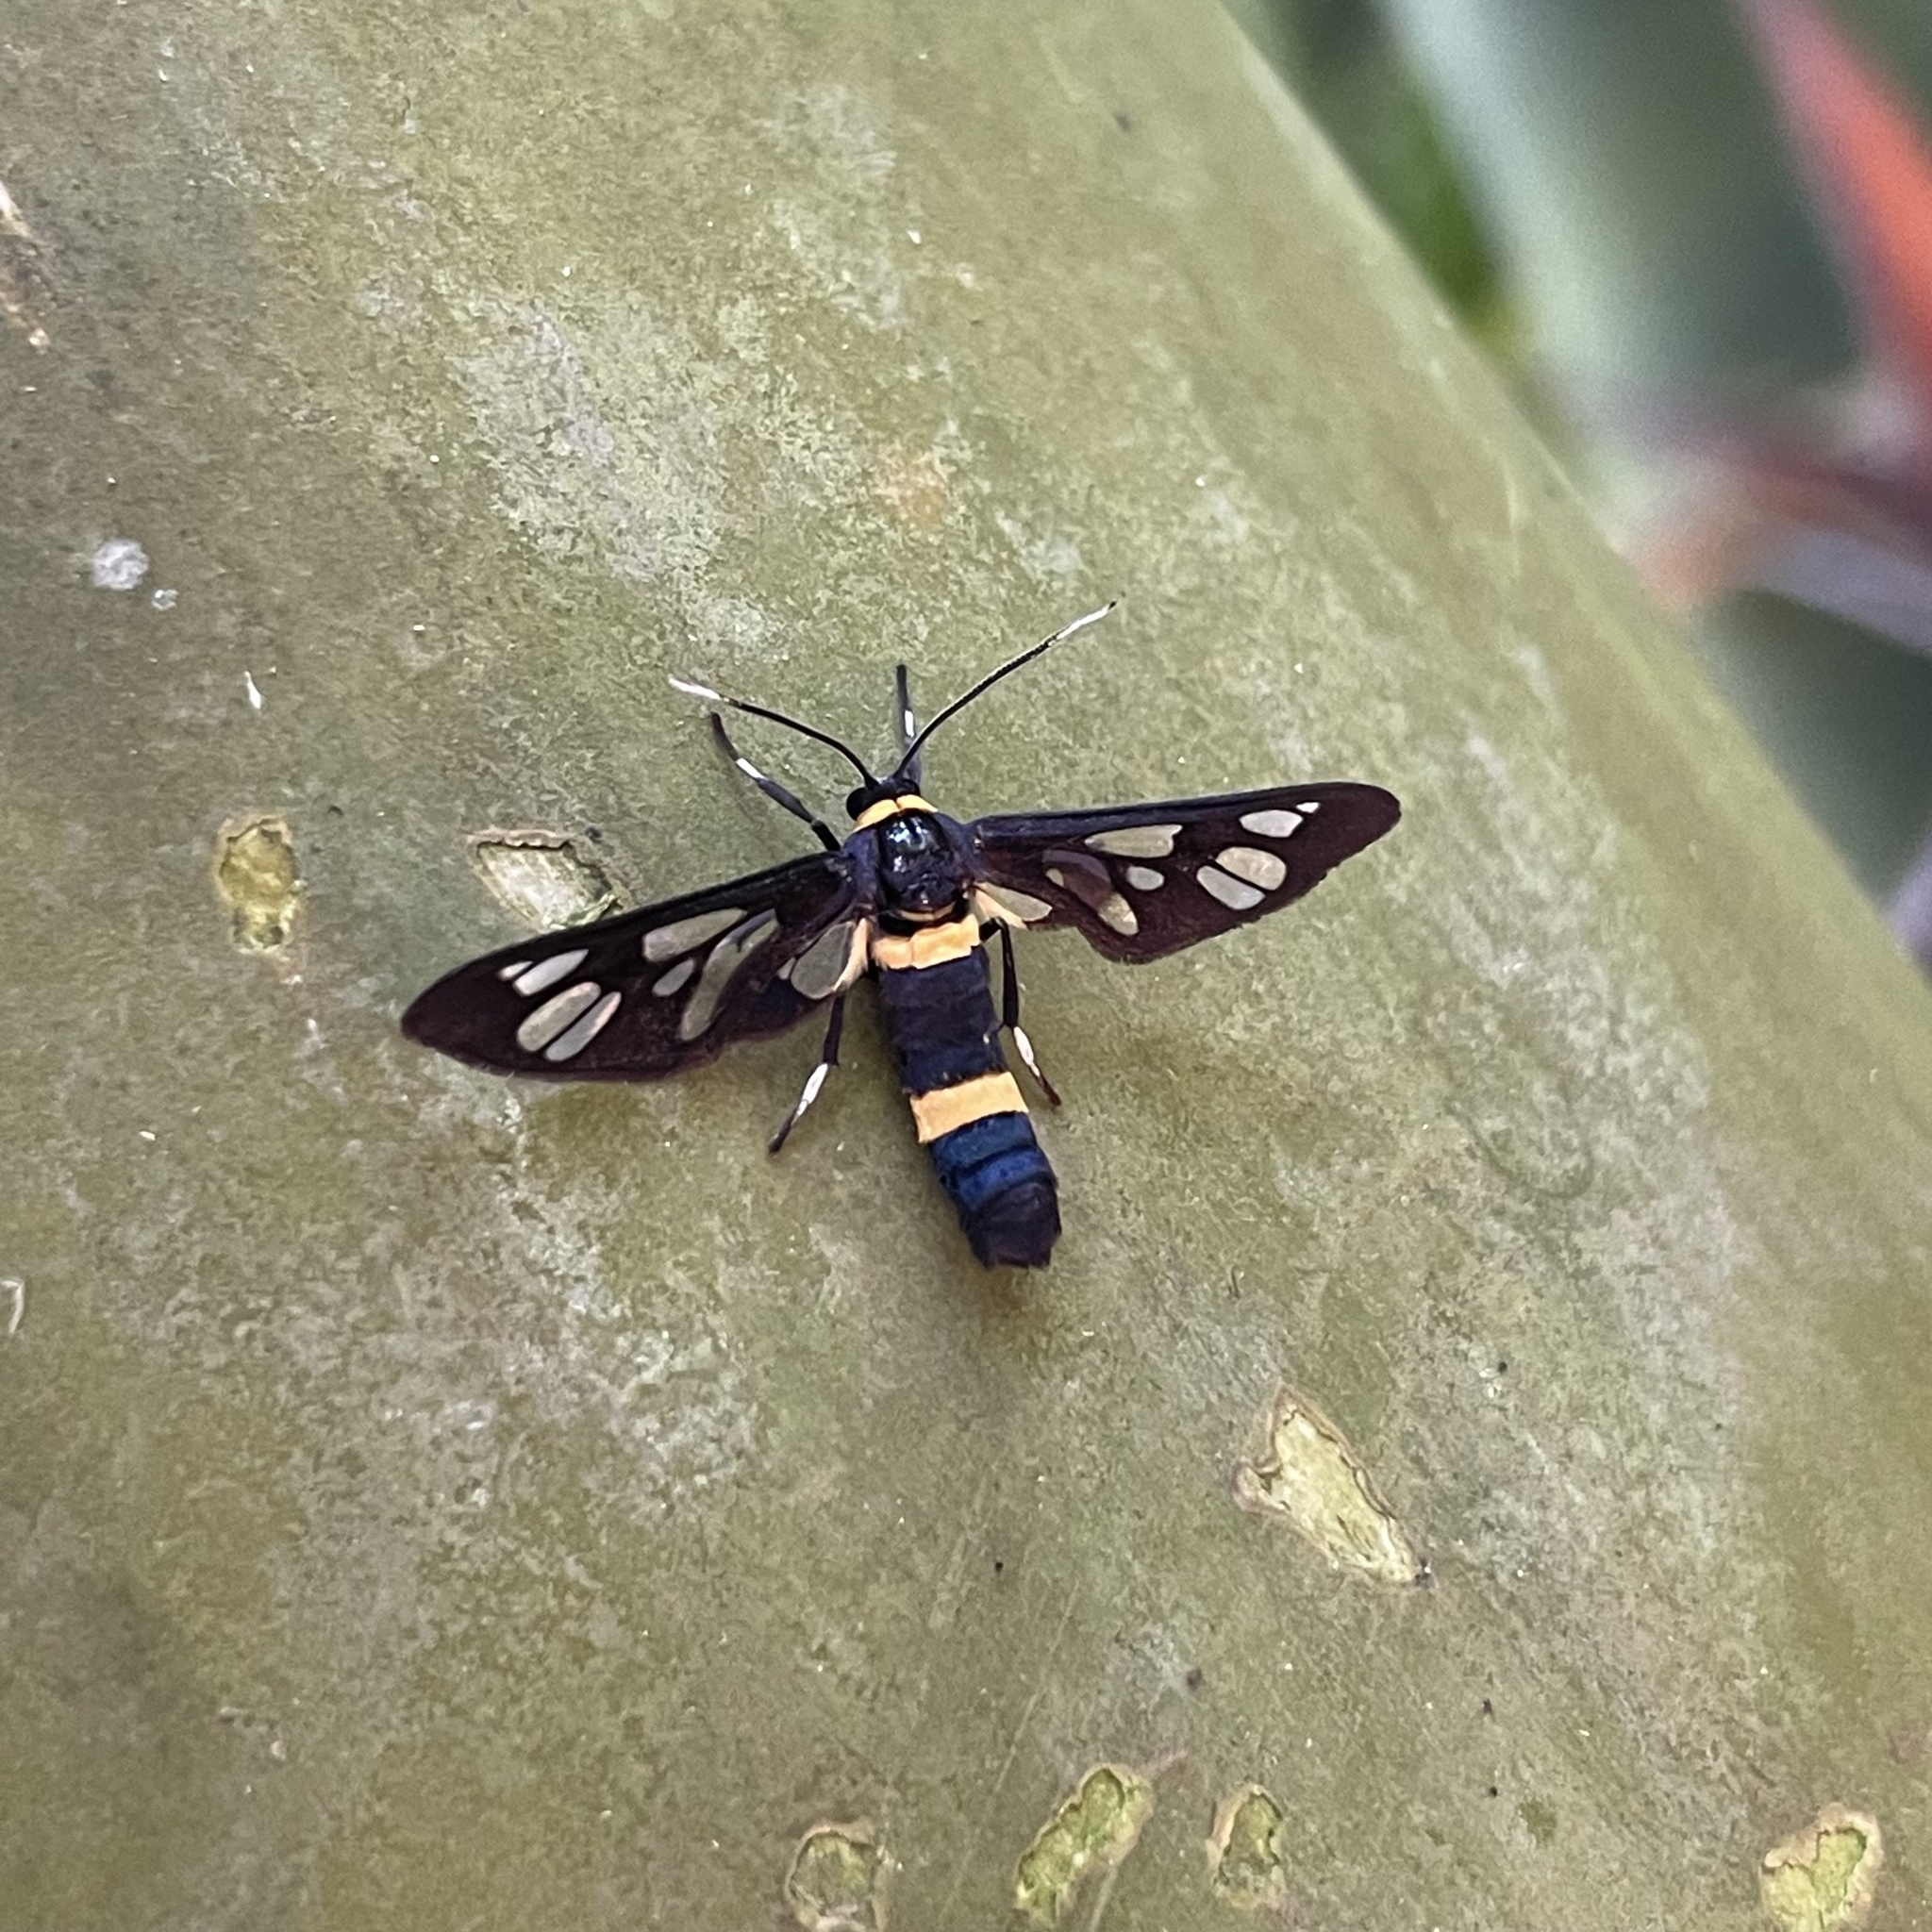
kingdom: Animalia
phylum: Arthropoda
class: Insecta
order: Lepidoptera
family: Erebidae
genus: Syntomoides
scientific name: Syntomoides imaon
